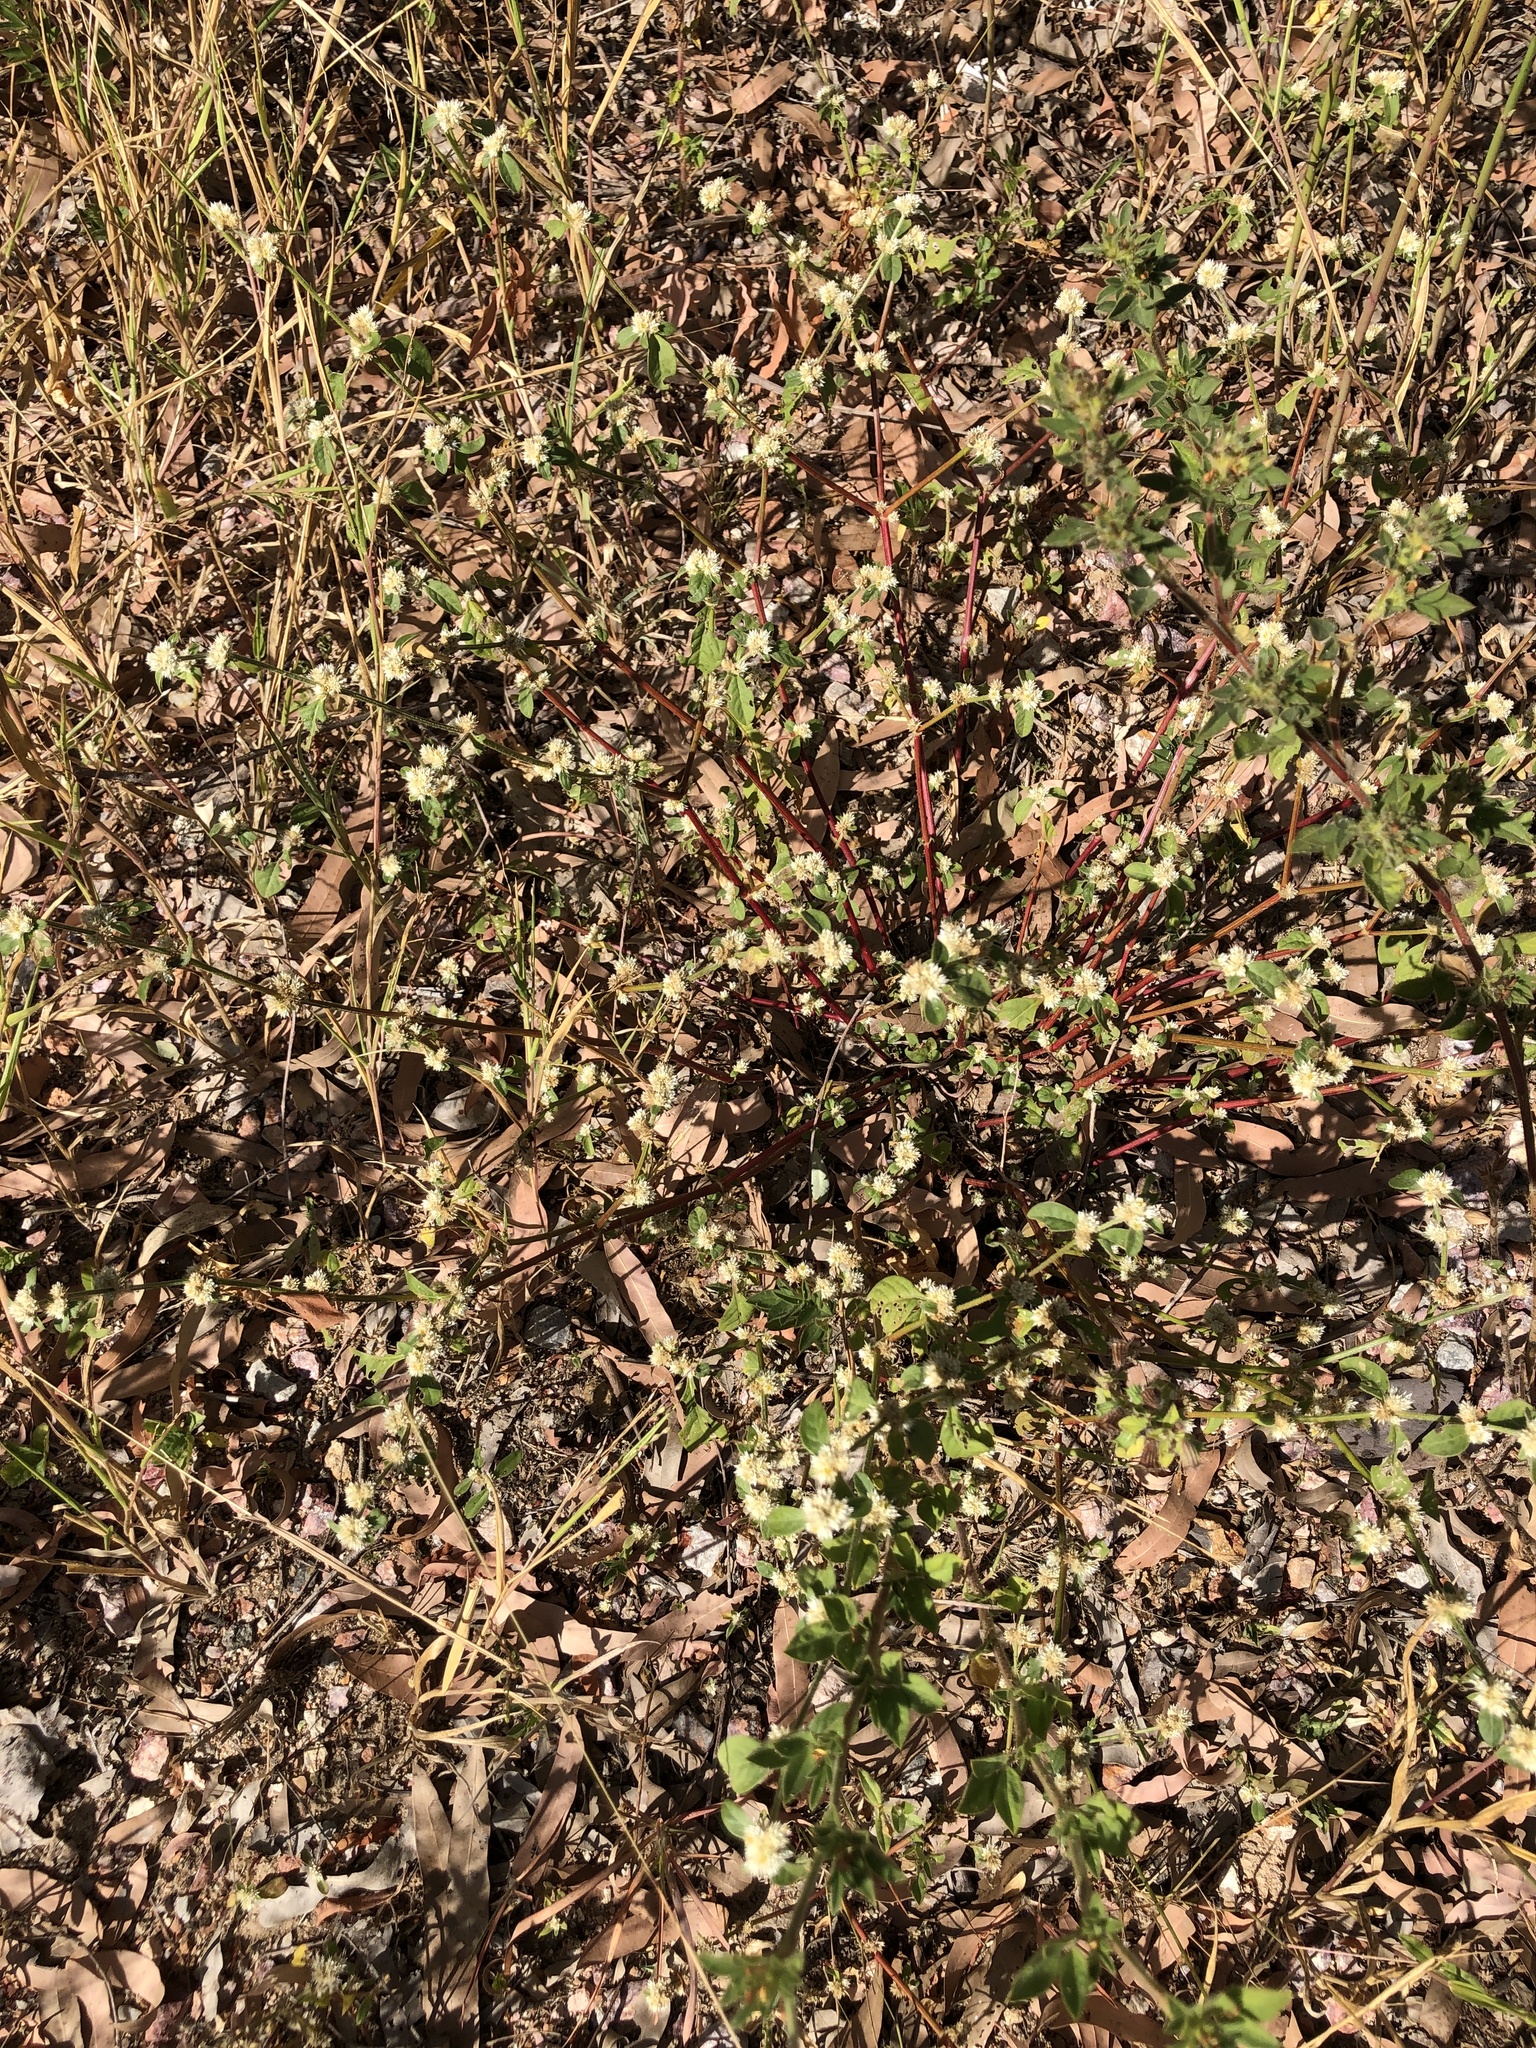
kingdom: Plantae
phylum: Tracheophyta
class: Magnoliopsida
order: Caryophyllales
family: Amaranthaceae
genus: Alternanthera
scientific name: Alternanthera ficoidea
